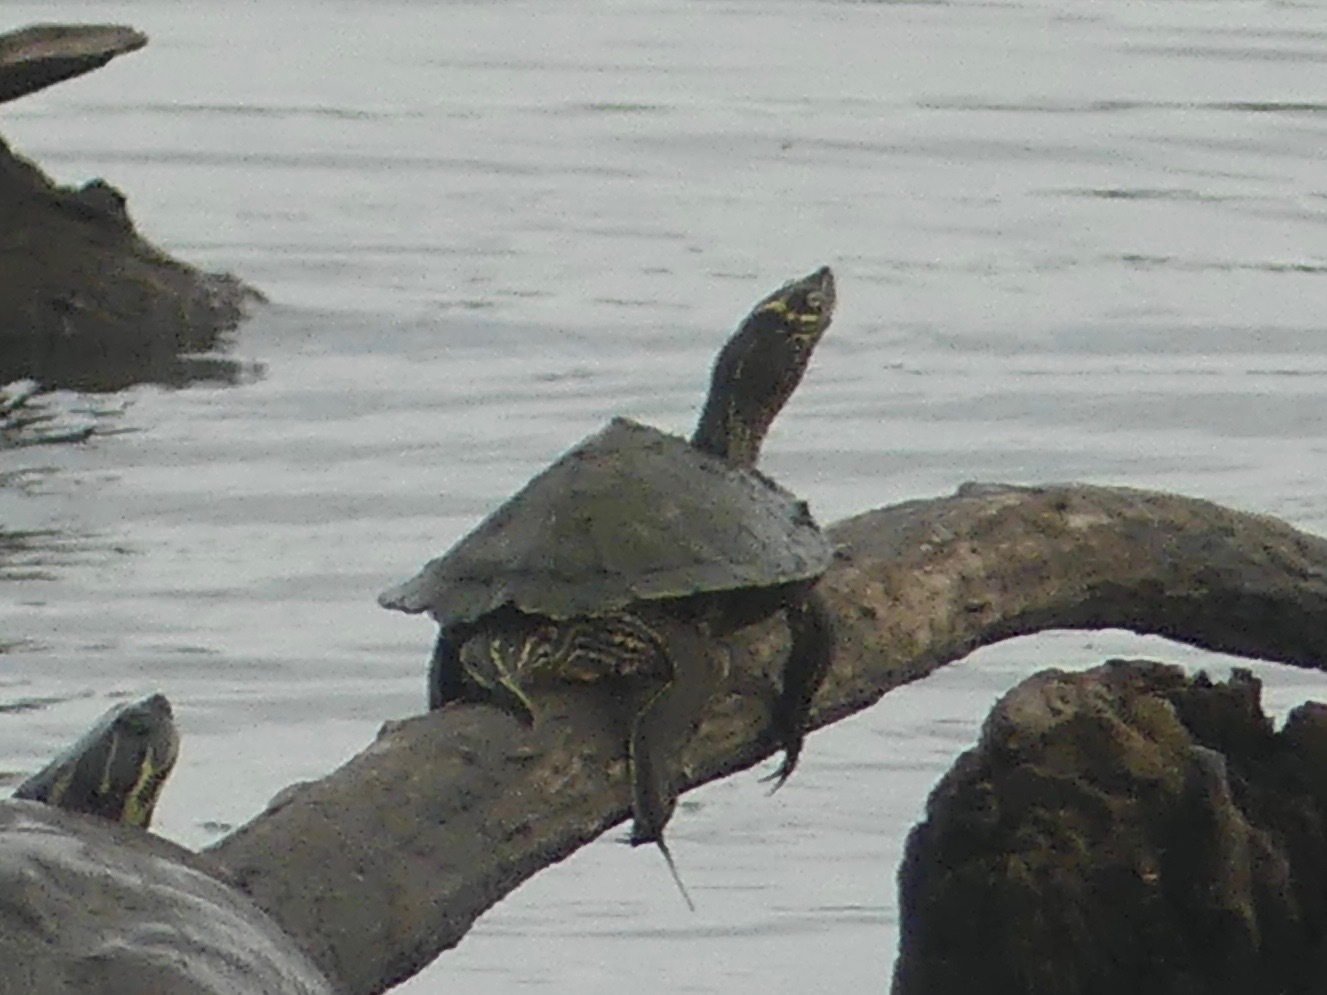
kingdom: Animalia
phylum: Chordata
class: Testudines
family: Emydidae
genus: Graptemys
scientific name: Graptemys pseudogeographica
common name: False map turtle
